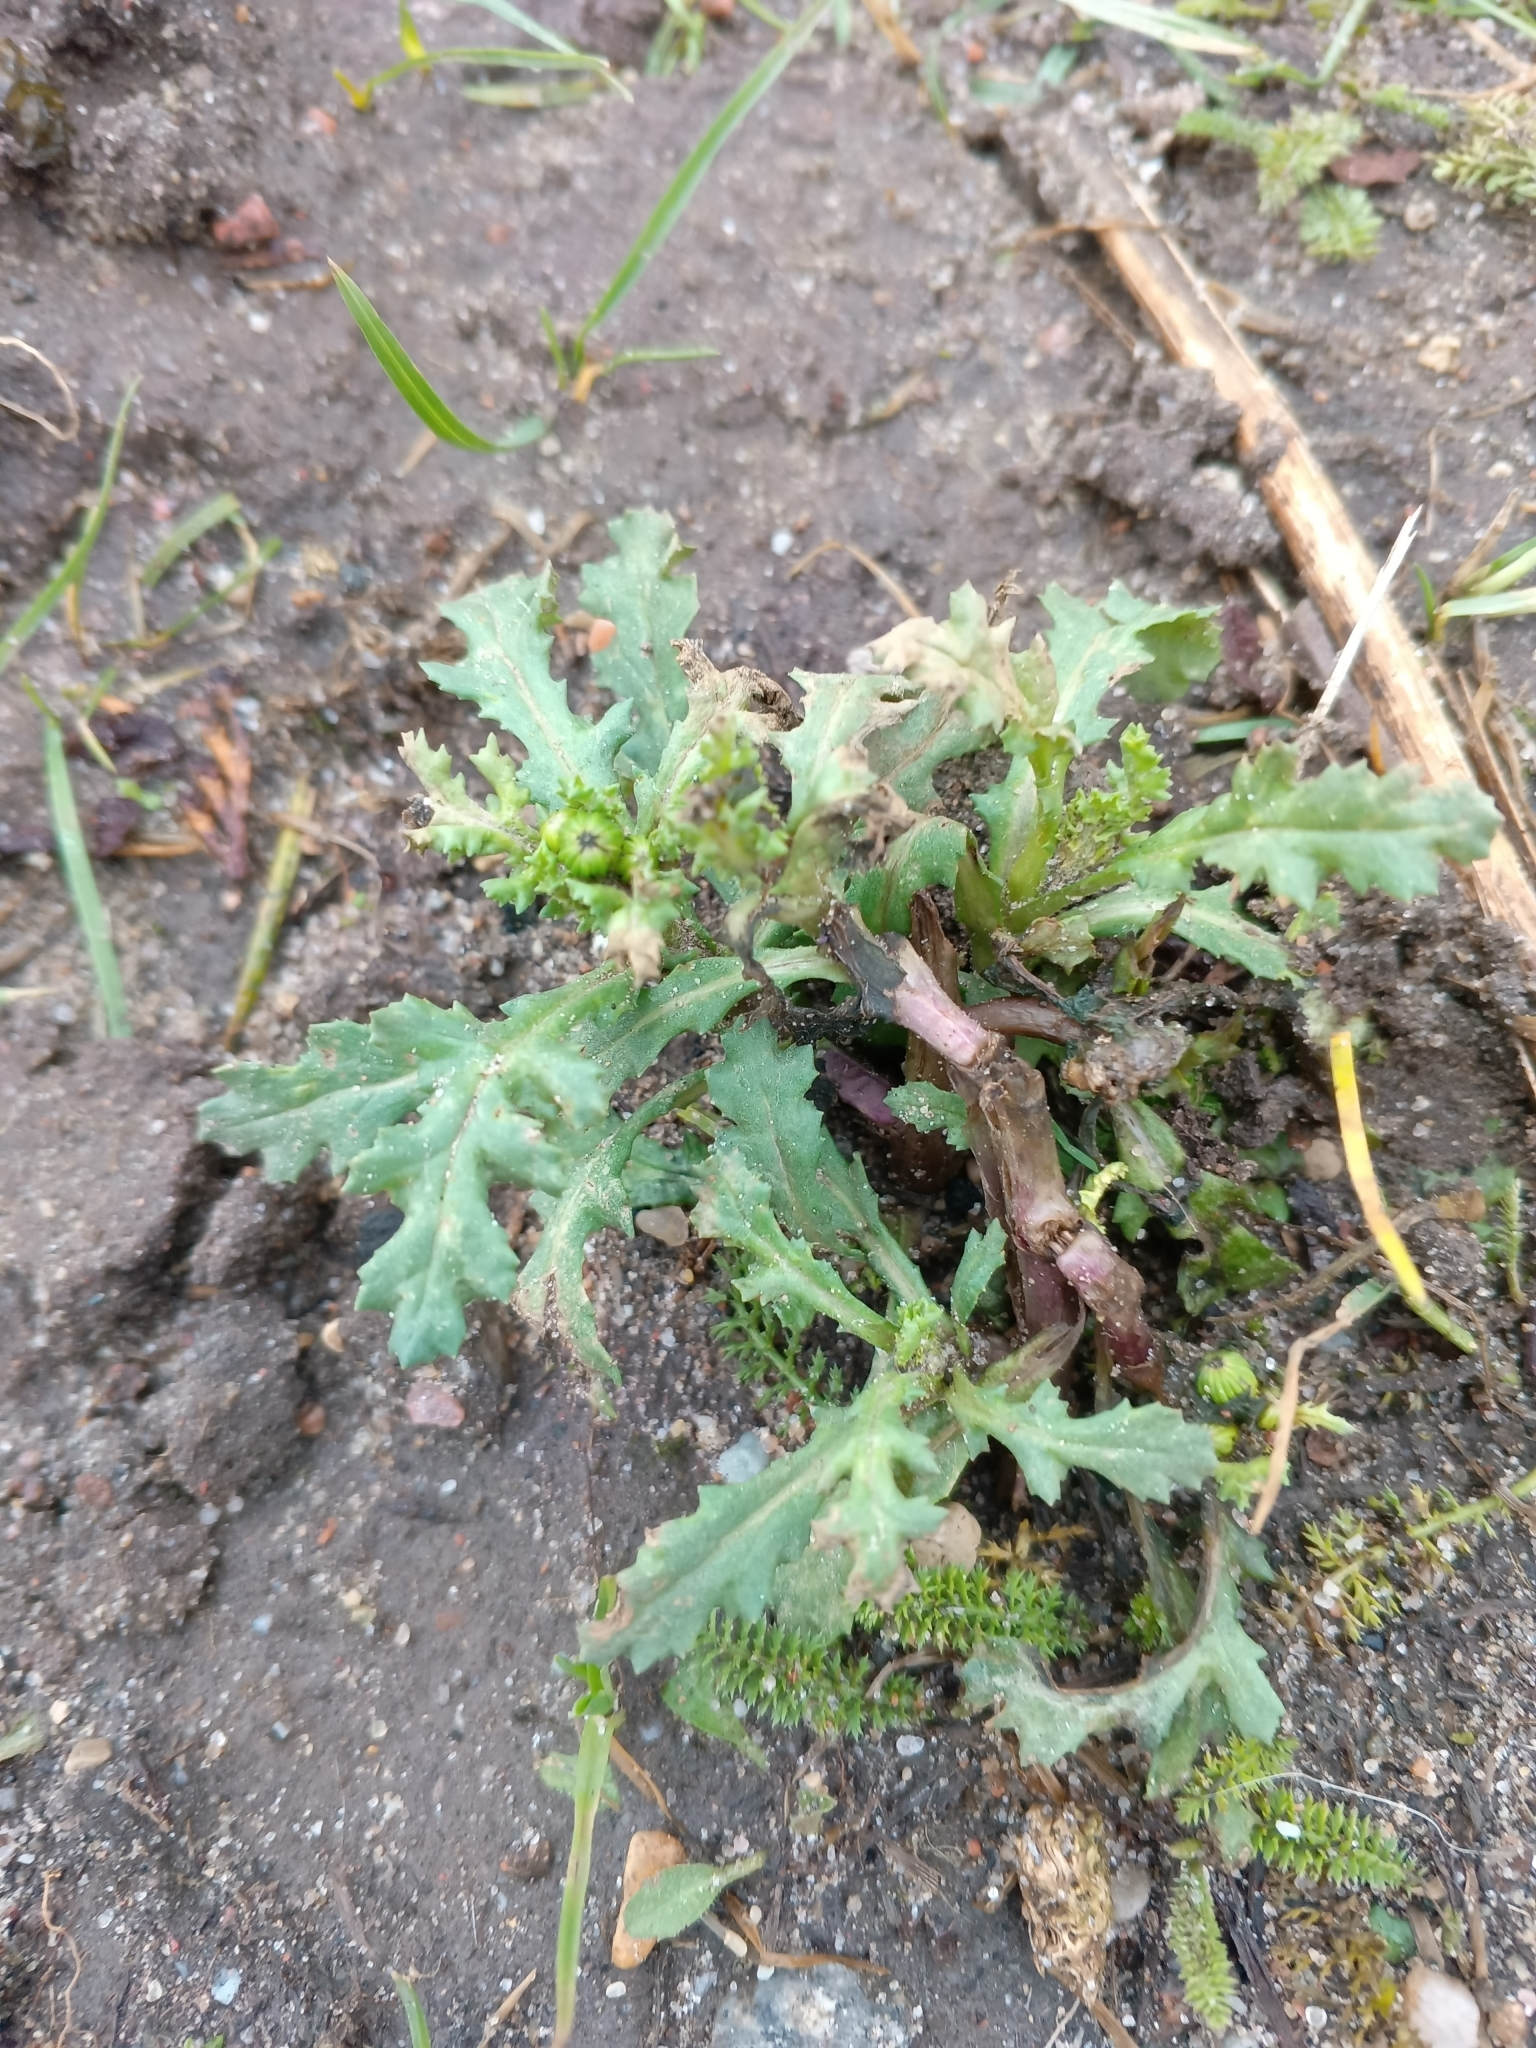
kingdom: Plantae
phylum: Tracheophyta
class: Magnoliopsida
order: Asterales
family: Asteraceae
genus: Senecio
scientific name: Senecio vulgaris
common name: Old-man-in-the-spring
